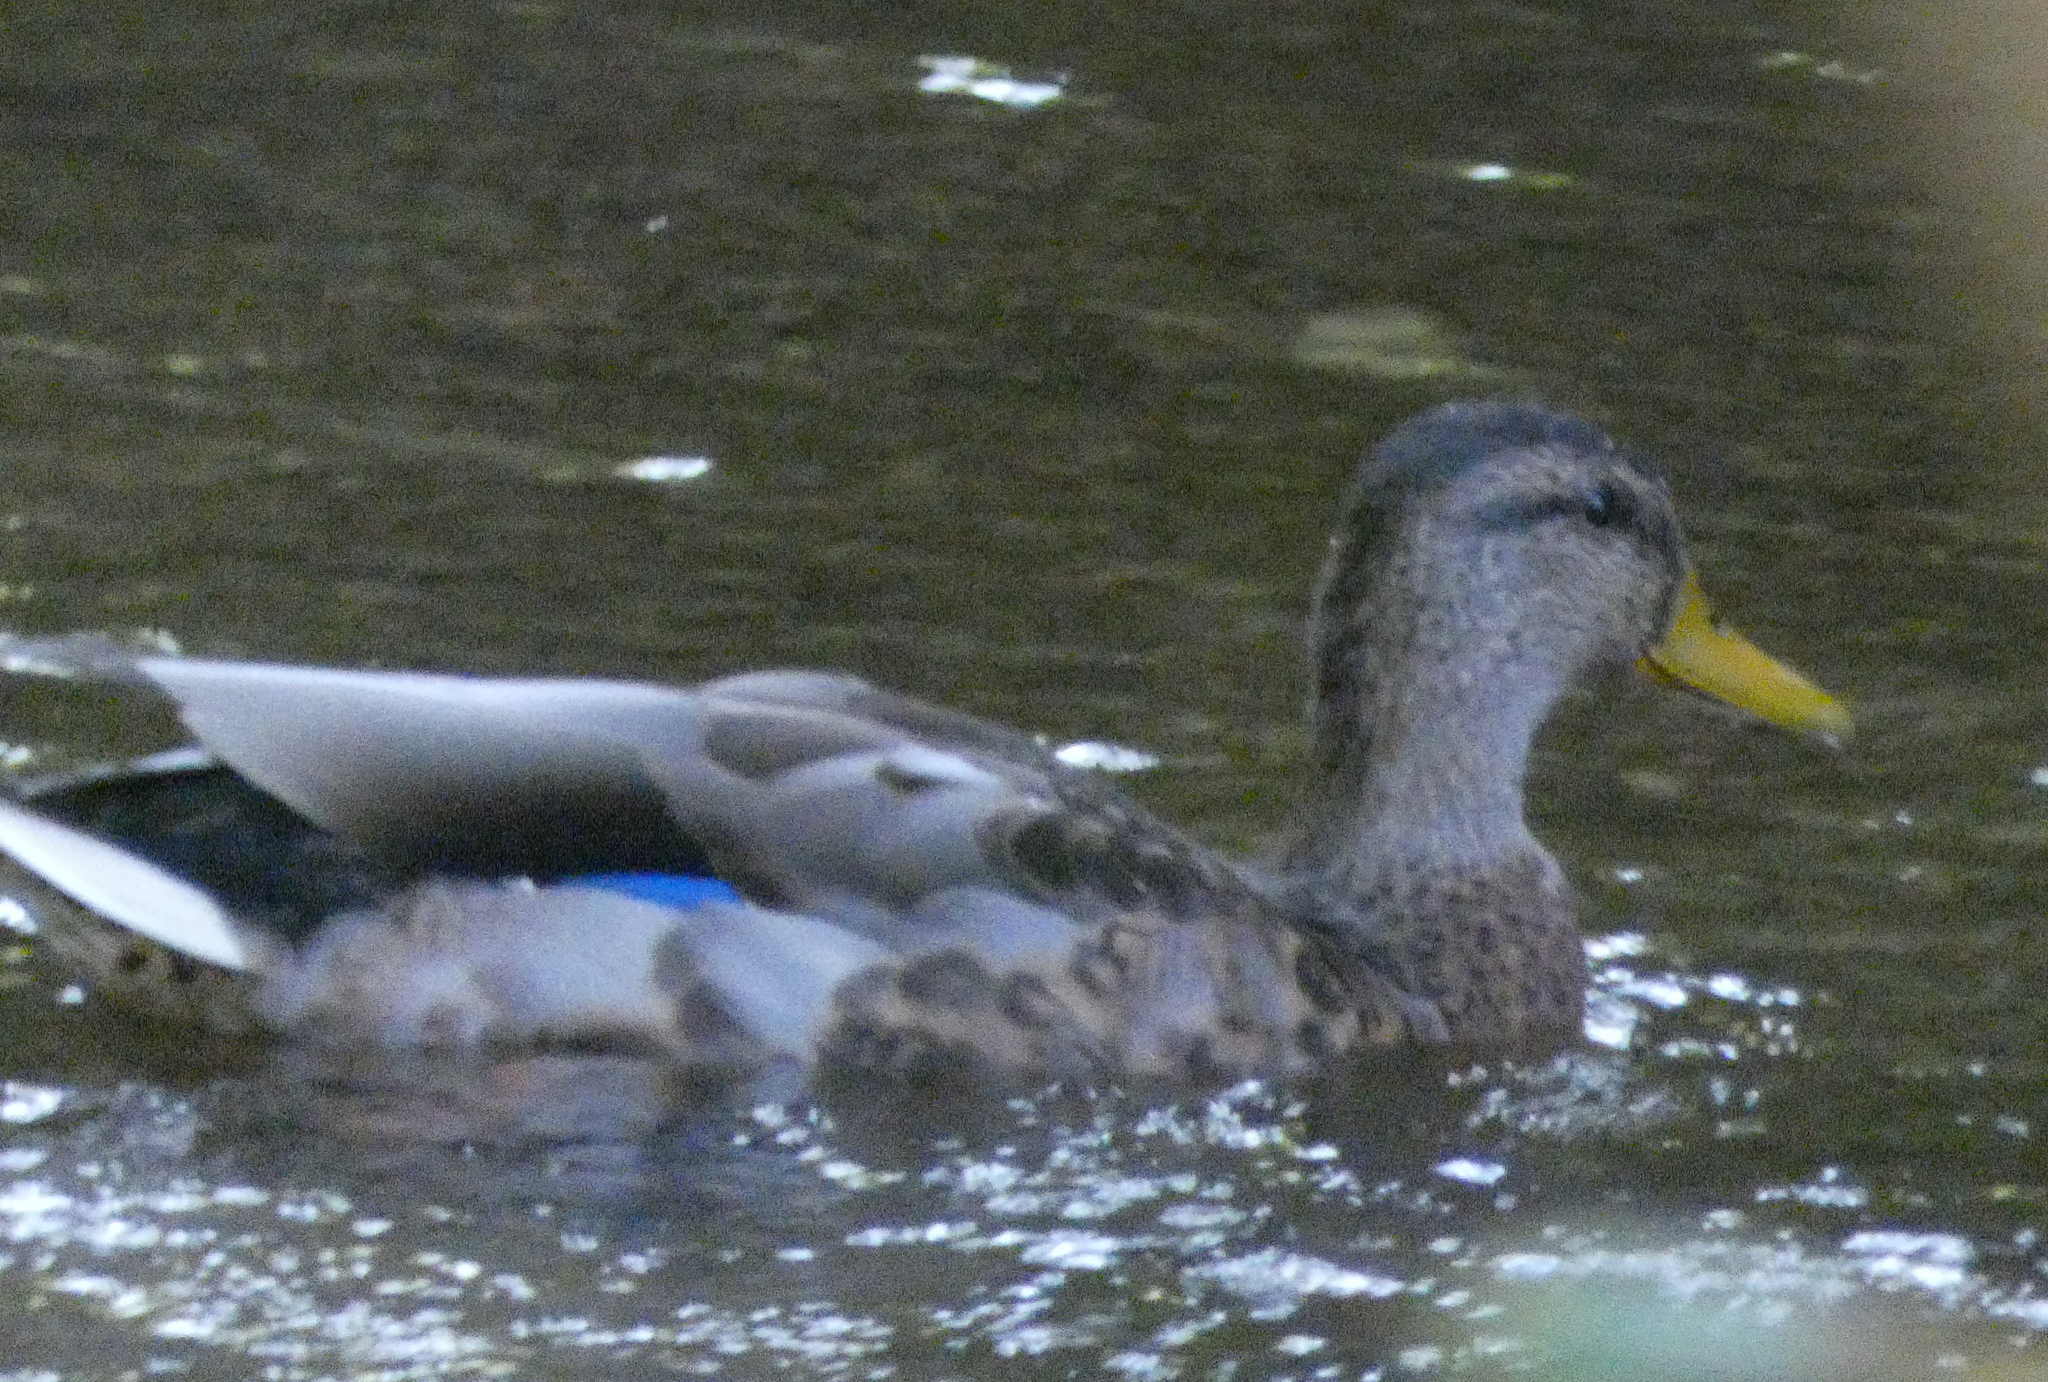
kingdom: Animalia
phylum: Chordata
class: Aves
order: Anseriformes
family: Anatidae
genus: Anas
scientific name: Anas platyrhynchos
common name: Mallard
